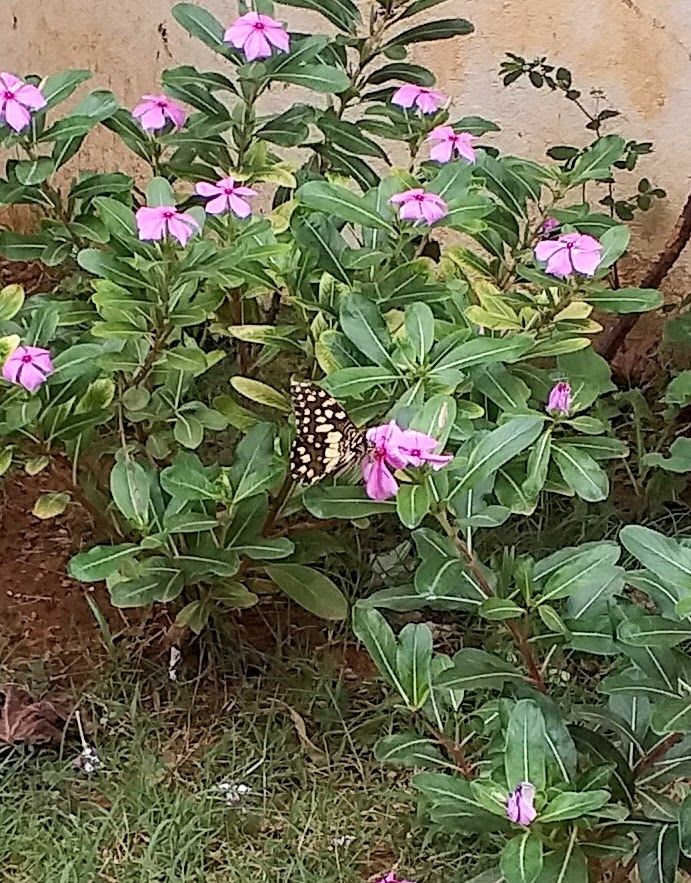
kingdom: Animalia
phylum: Arthropoda
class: Insecta
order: Lepidoptera
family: Papilionidae
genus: Papilio
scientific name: Papilio demoleus
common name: Lime butterfly
